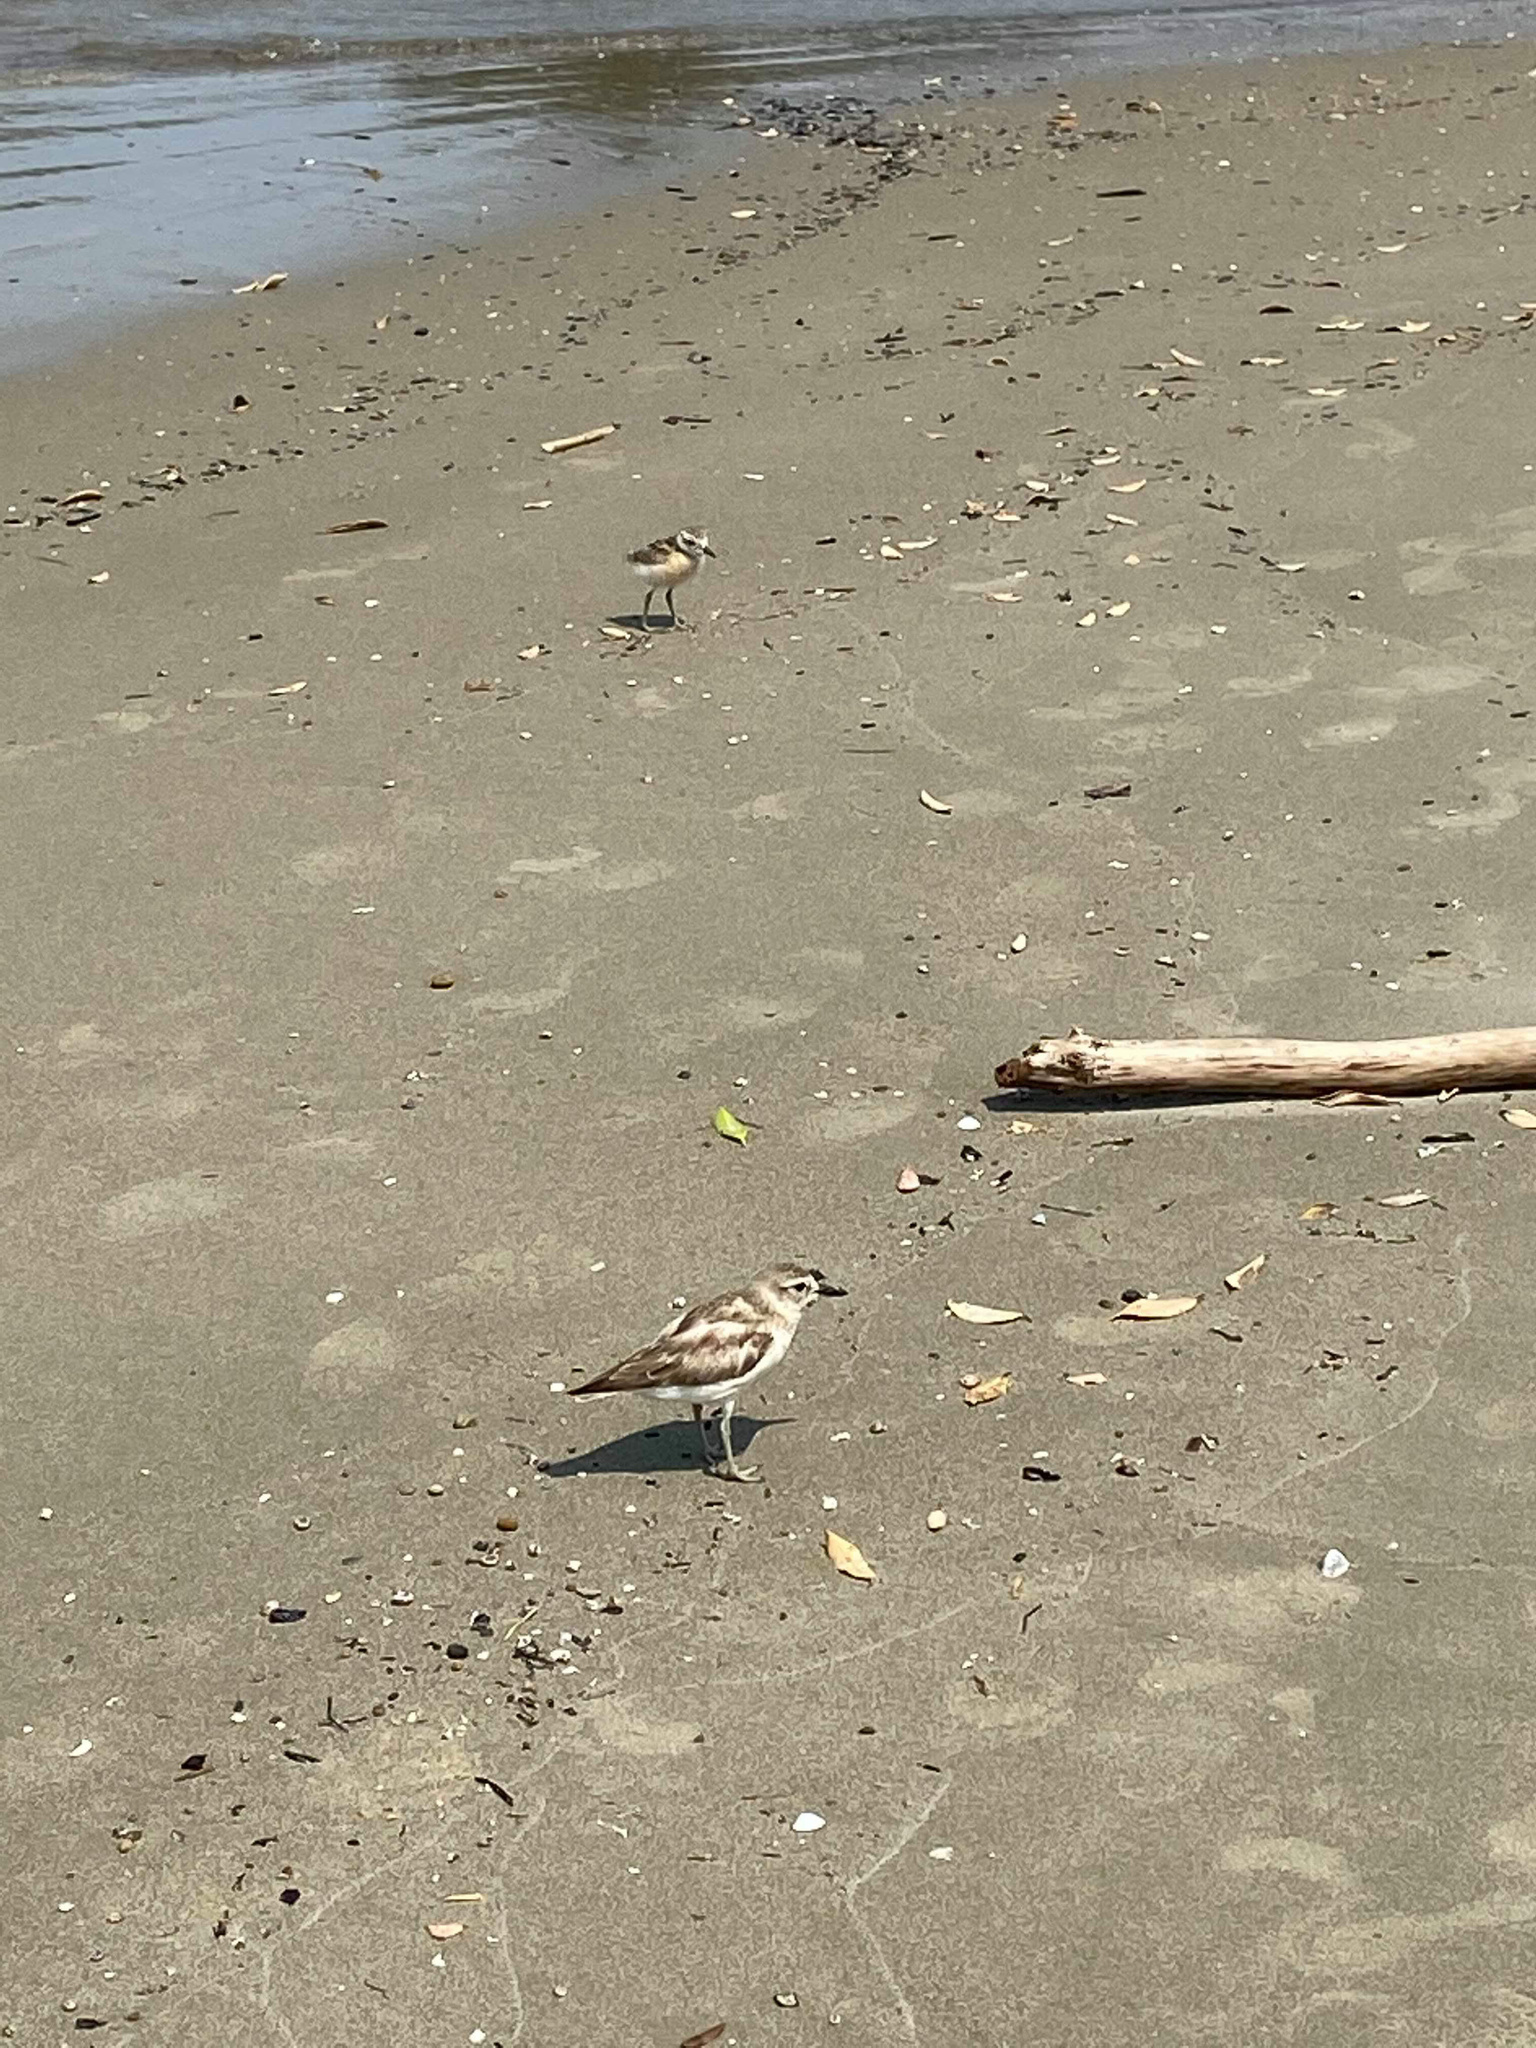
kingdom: Animalia
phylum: Chordata
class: Aves
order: Charadriiformes
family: Charadriidae
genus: Anarhynchus
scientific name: Anarhynchus
